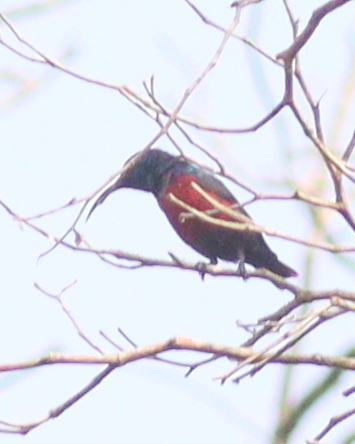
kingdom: Animalia
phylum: Chordata
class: Aves
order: Passeriformes
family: Nectariniidae
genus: Cinnyris
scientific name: Cinnyris johannae
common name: Johanna's sunbird
